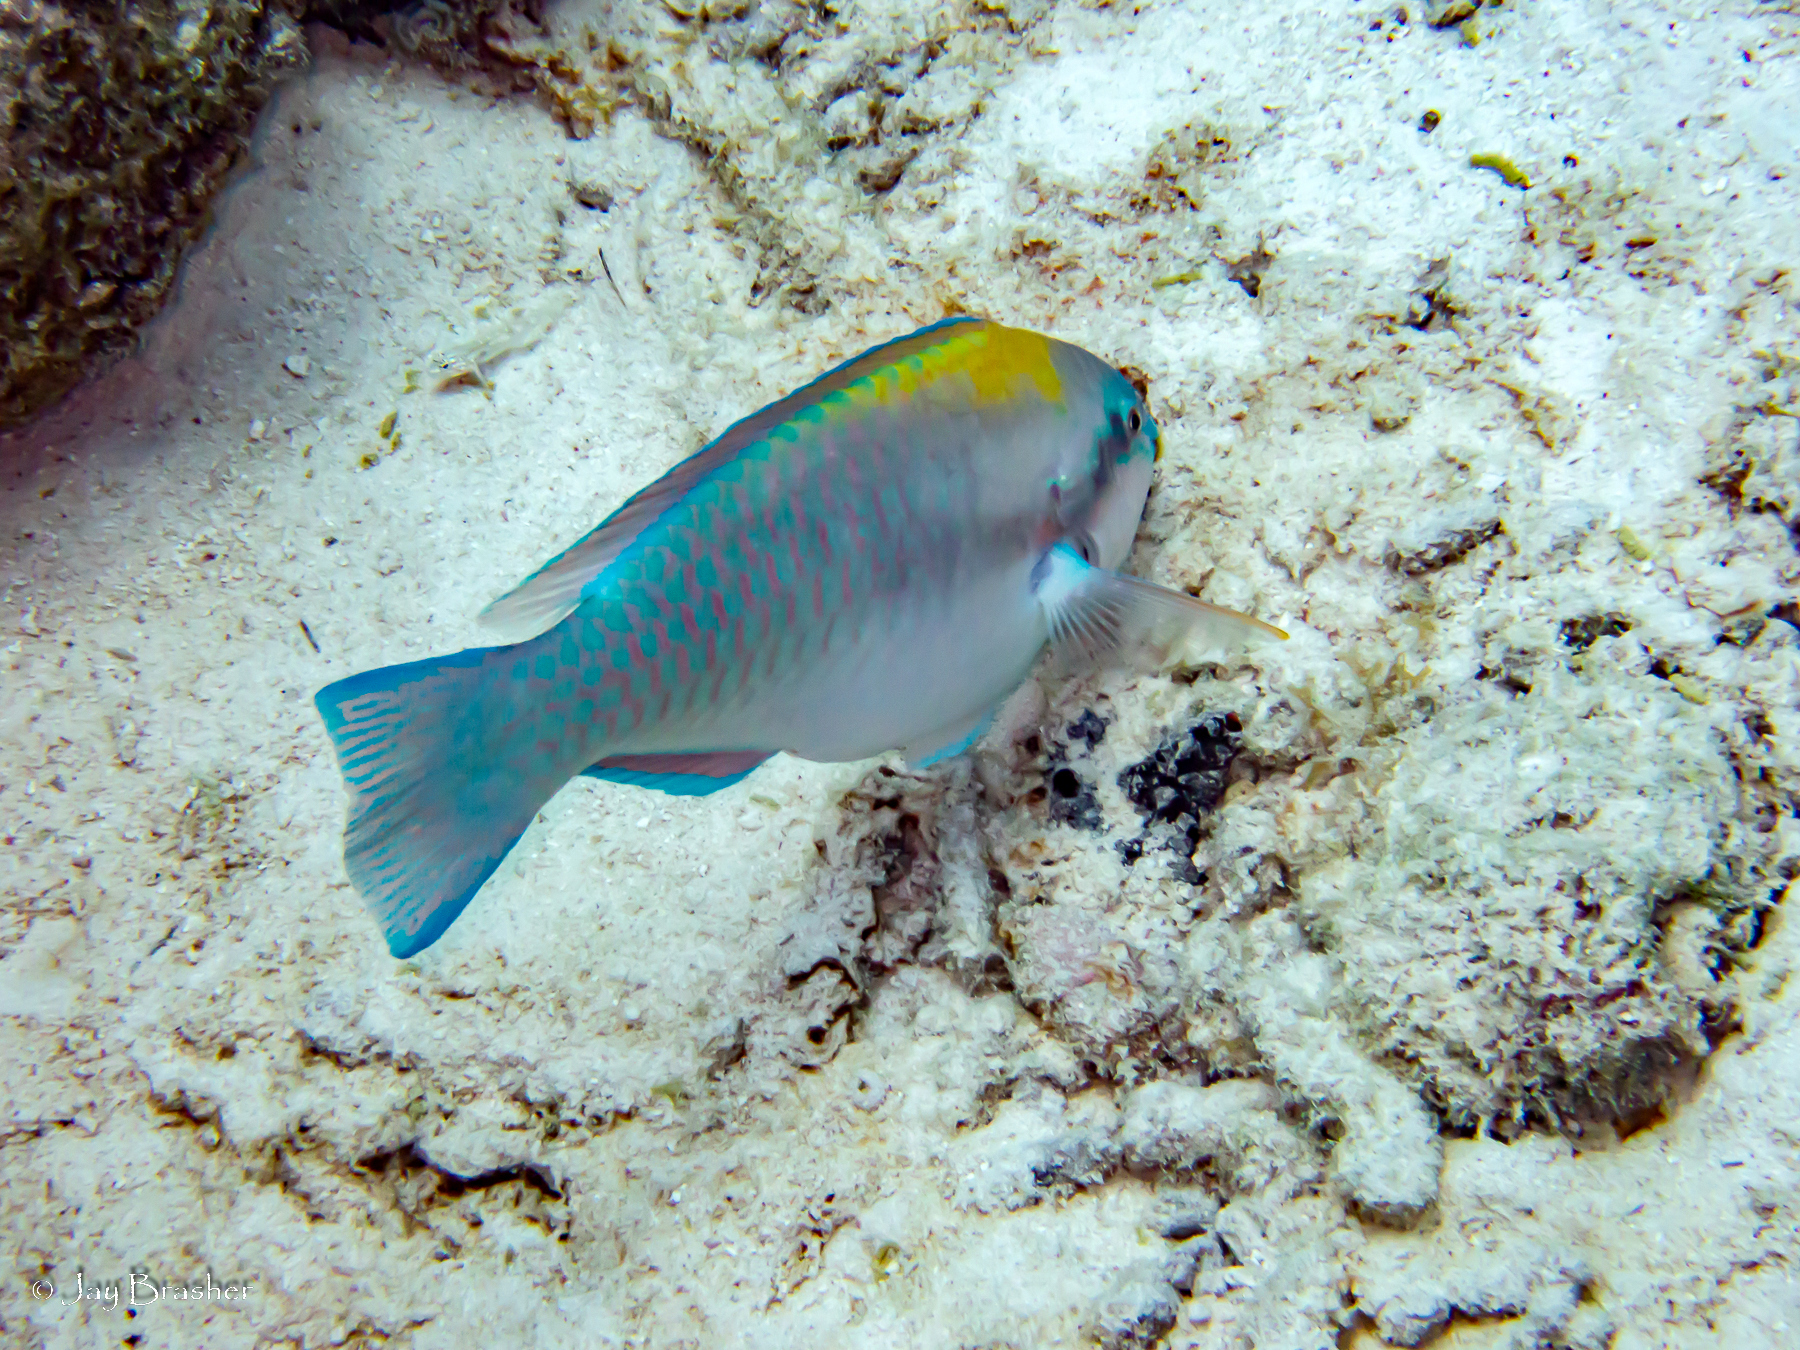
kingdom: Animalia
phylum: Chordata
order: Perciformes
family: Scaridae
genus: Scarus
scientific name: Scarus iseri
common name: Striped parrotfish
